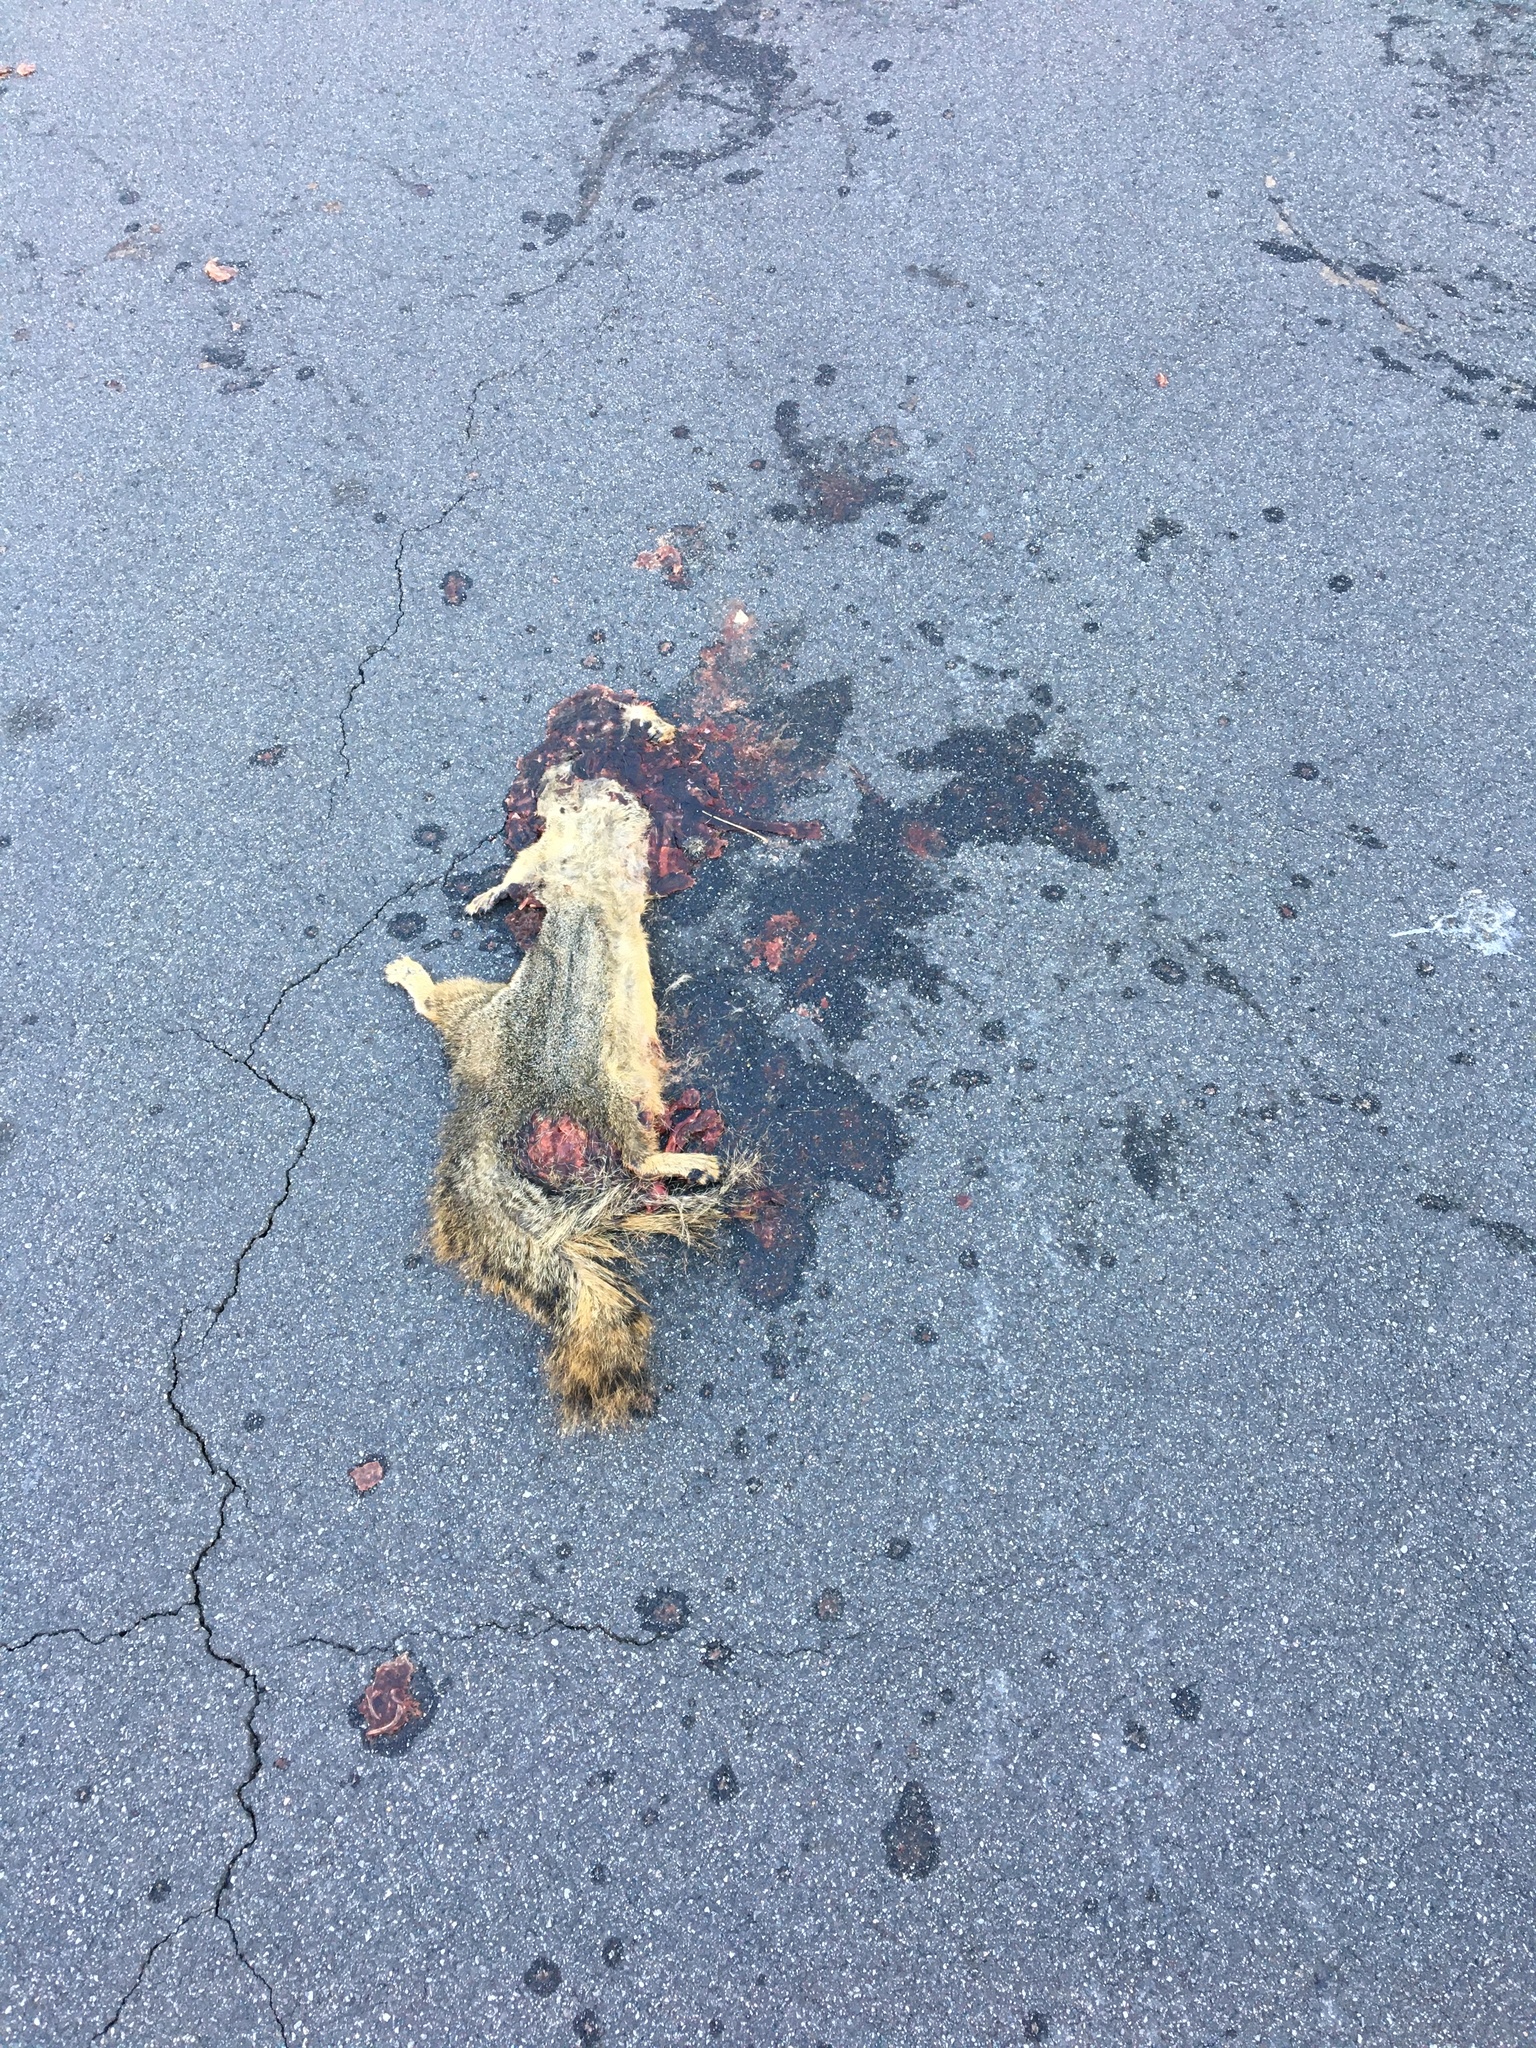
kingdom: Animalia
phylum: Chordata
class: Mammalia
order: Rodentia
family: Sciuridae
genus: Sciurus
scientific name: Sciurus niger
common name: Fox squirrel
